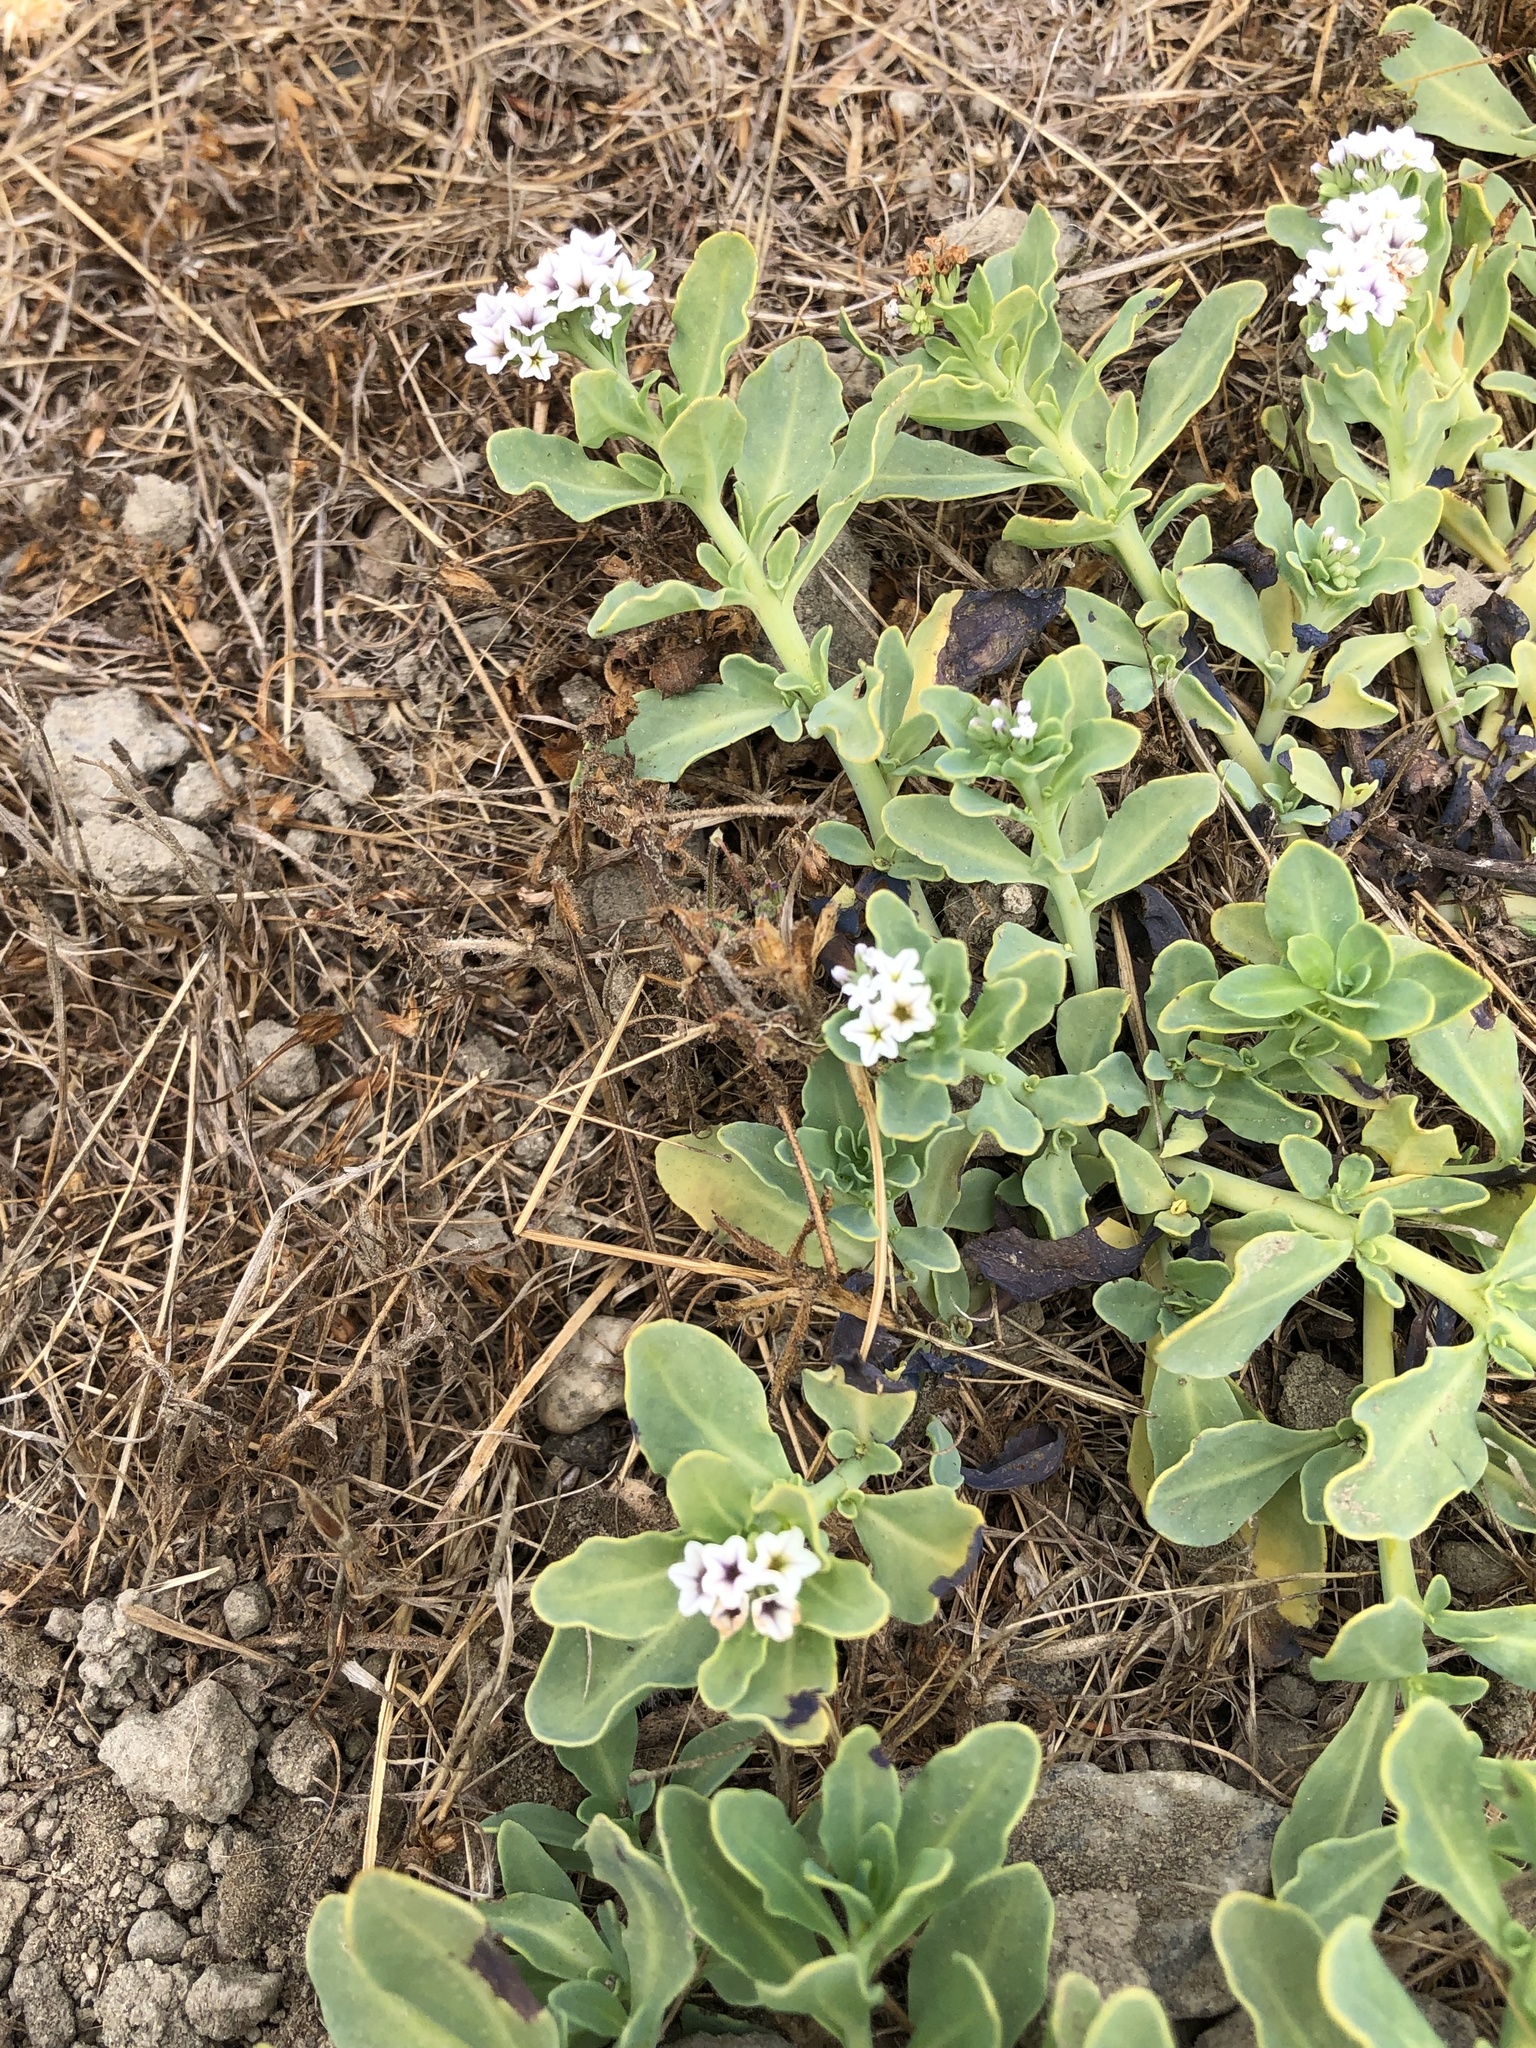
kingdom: Plantae
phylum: Tracheophyta
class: Magnoliopsida
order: Boraginales
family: Heliotropiaceae
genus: Heliotropium
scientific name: Heliotropium curassavicum
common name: Seaside heliotrope
